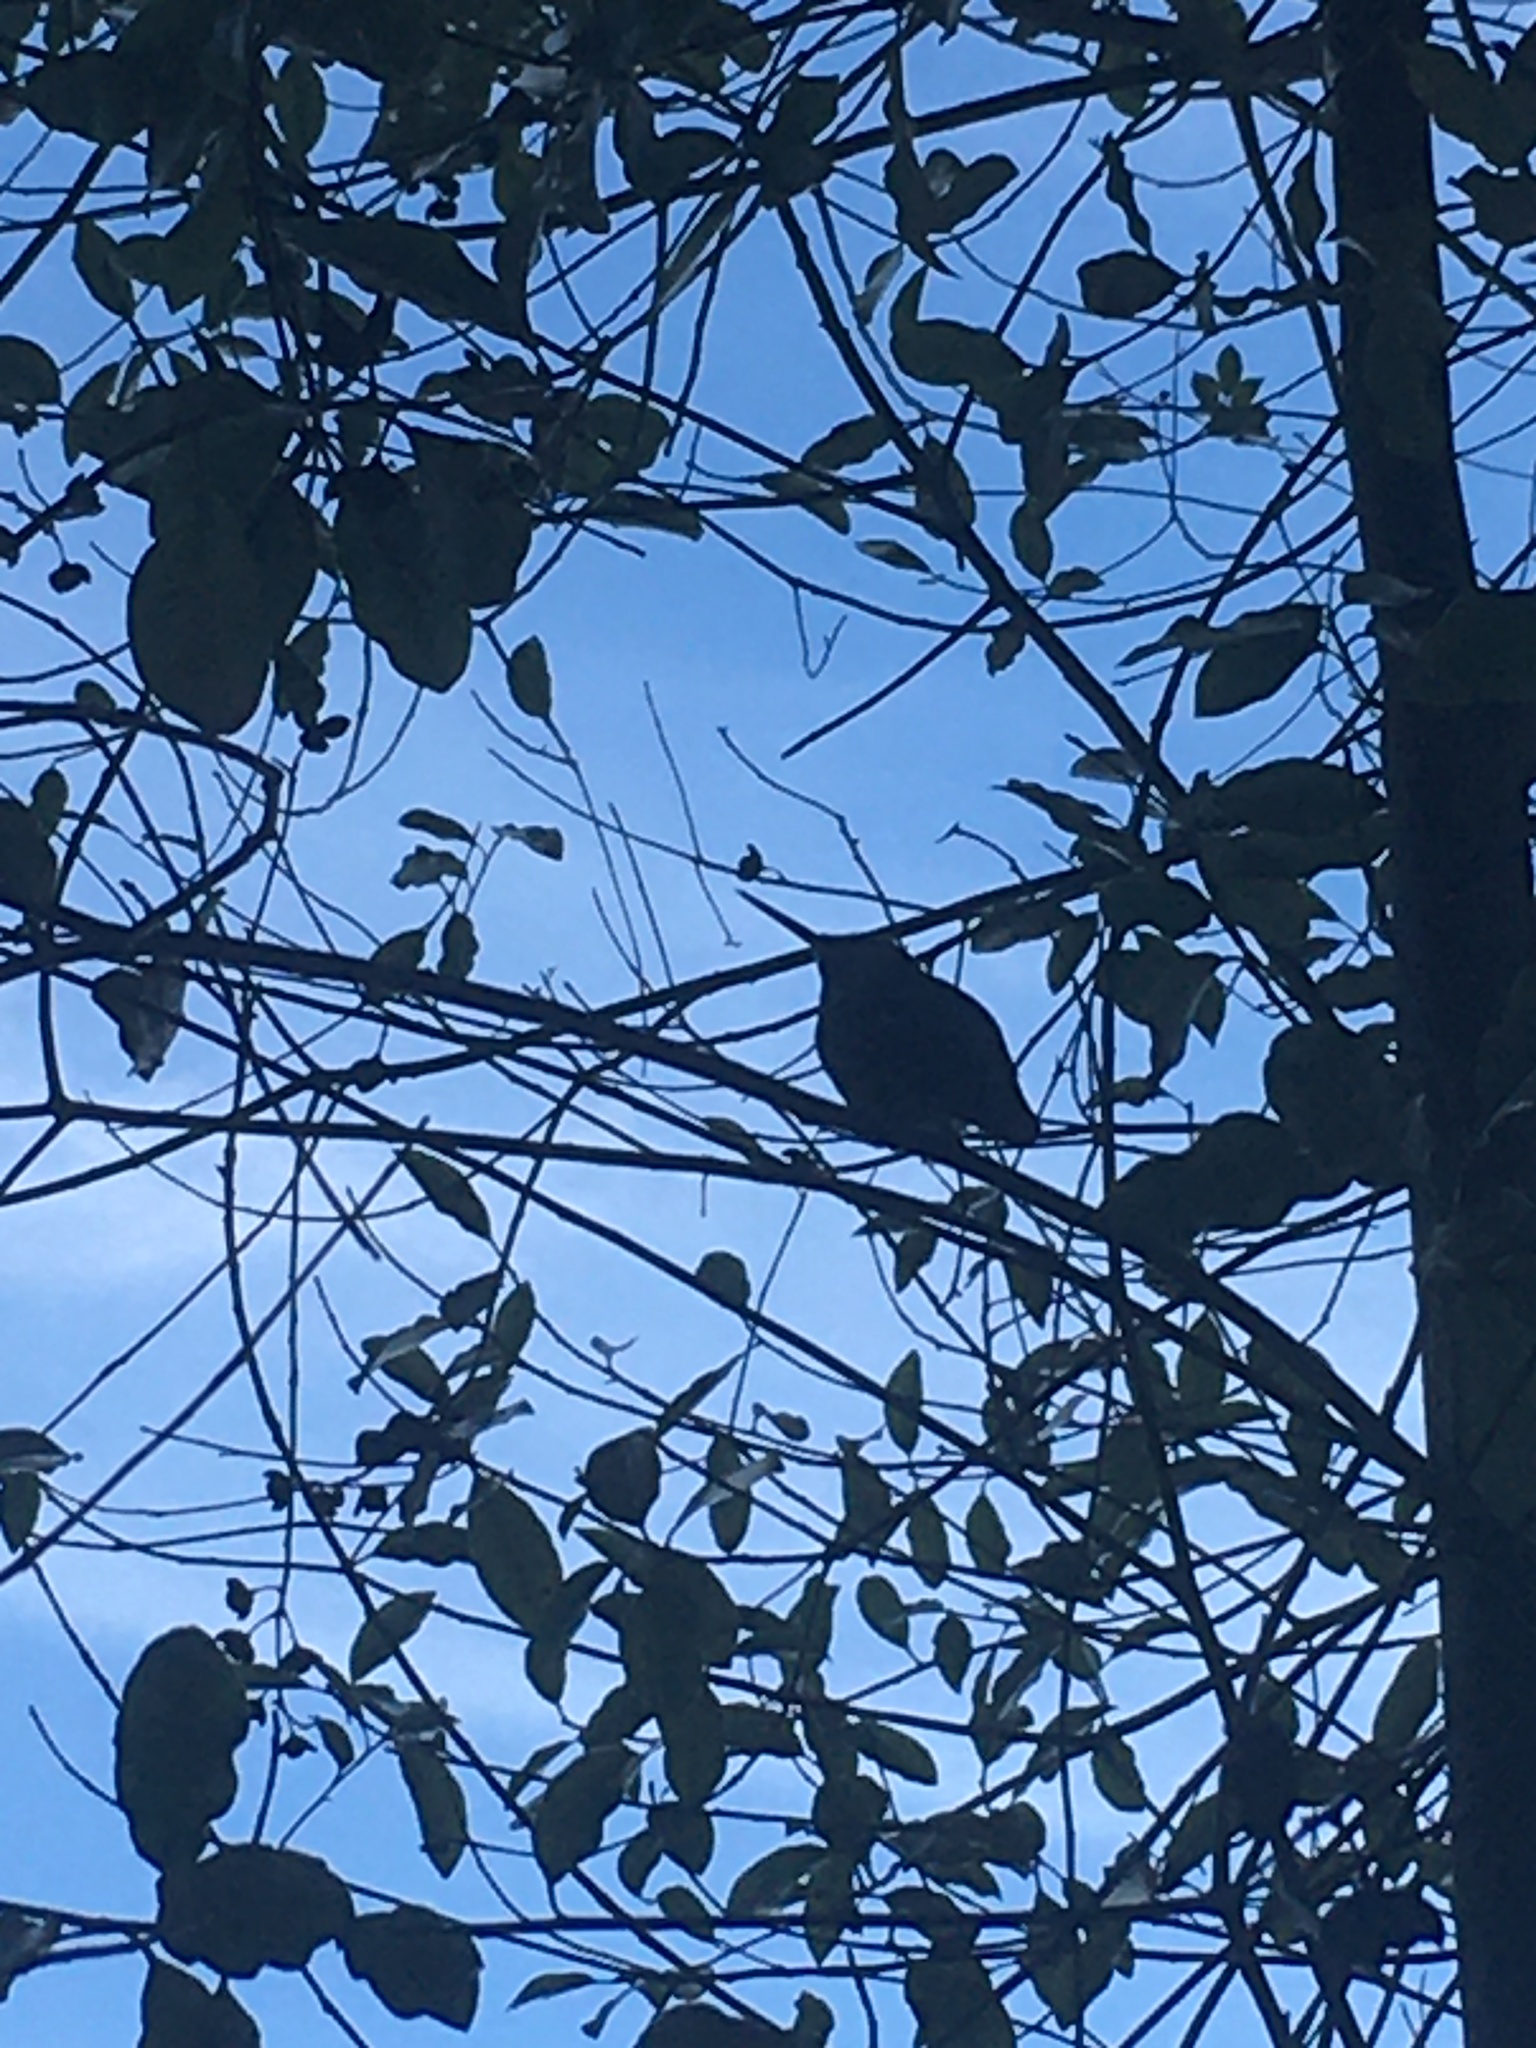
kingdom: Animalia
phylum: Chordata
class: Aves
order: Apodiformes
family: Trochilidae
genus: Calypte
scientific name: Calypte anna
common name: Anna's hummingbird
